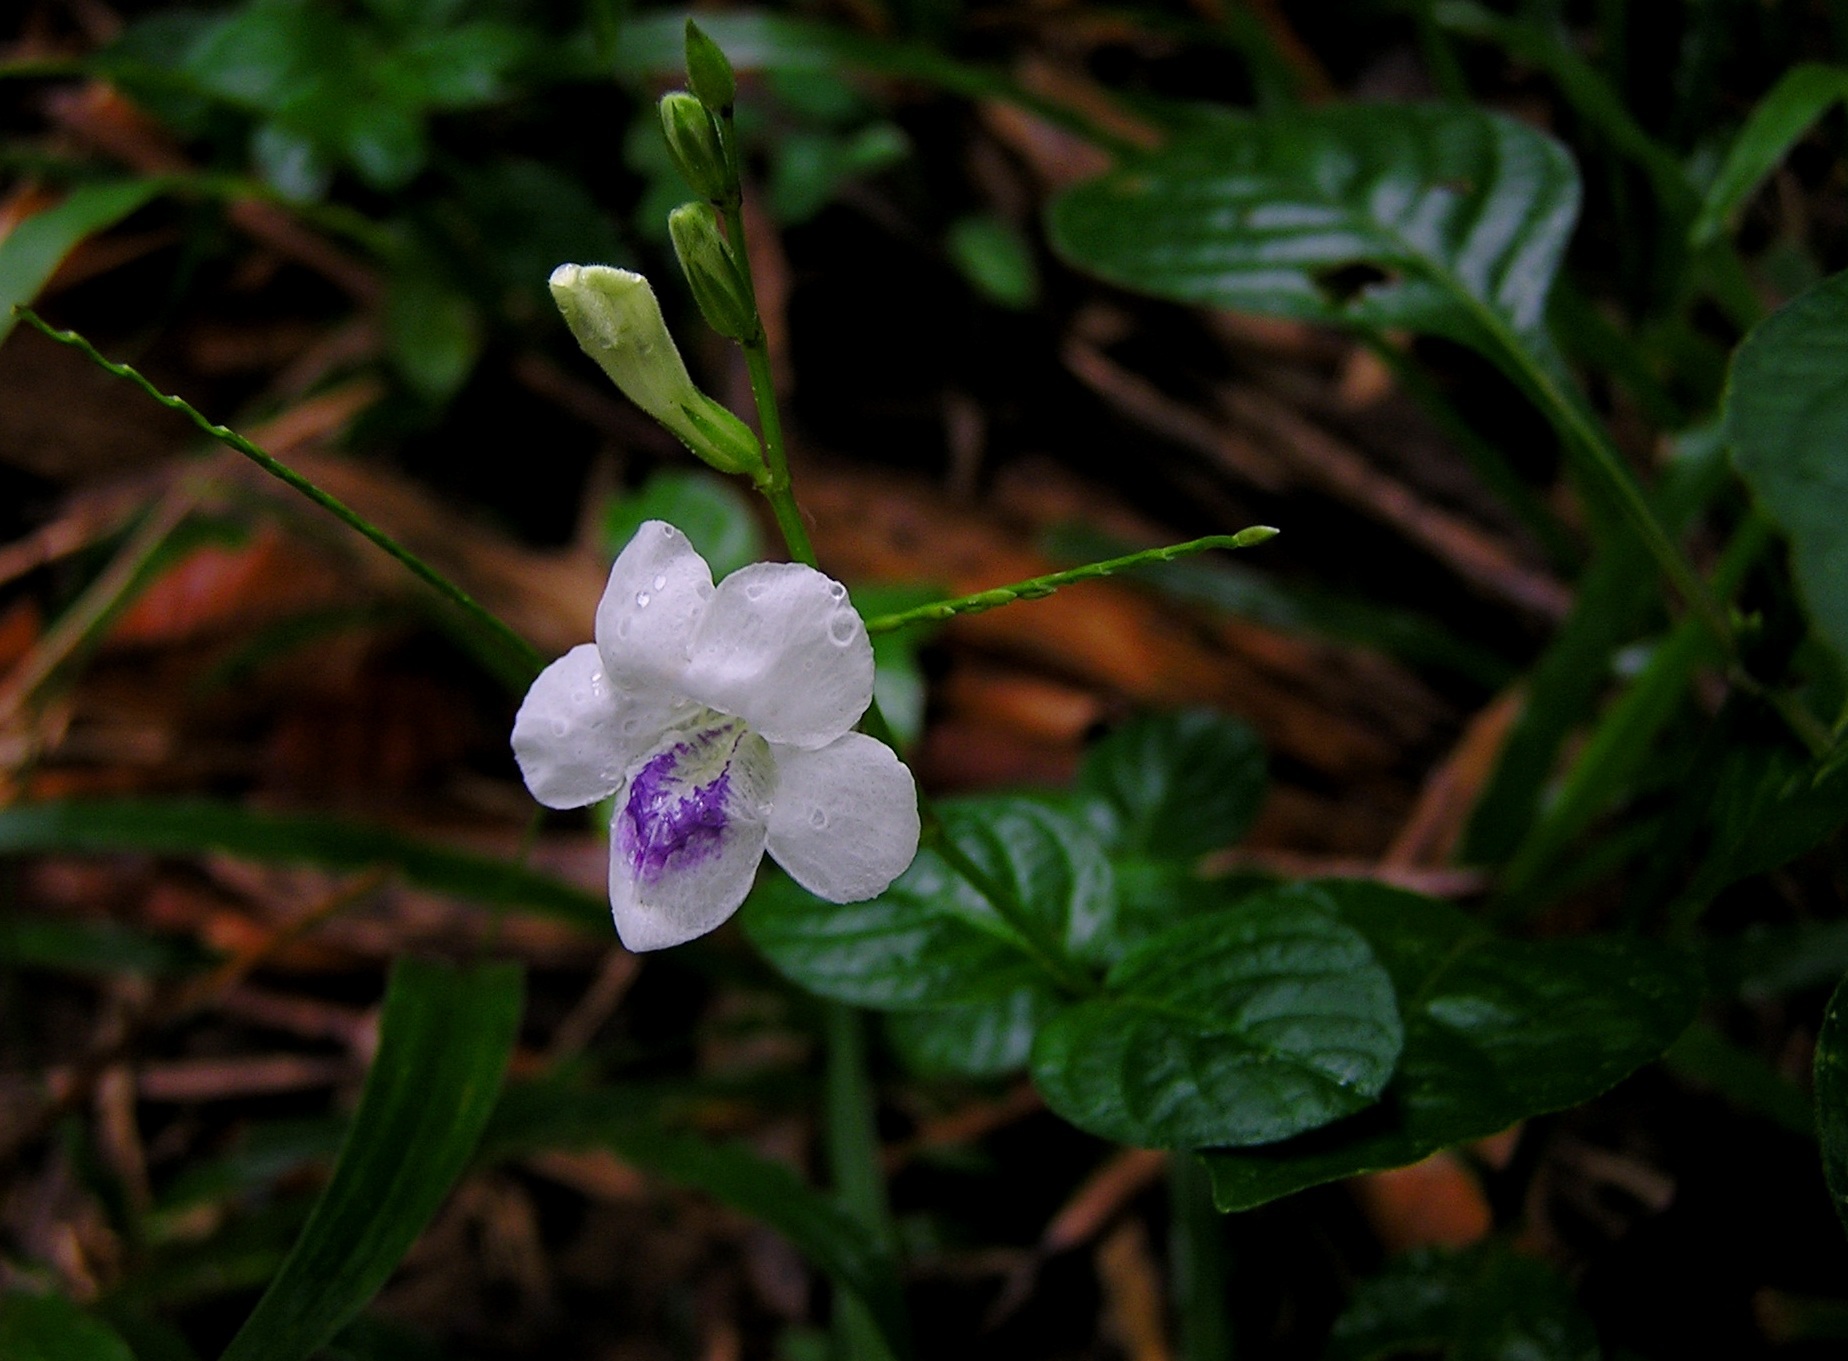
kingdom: Plantae
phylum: Tracheophyta
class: Magnoliopsida
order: Lamiales
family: Acanthaceae
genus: Asystasia
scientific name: Asystasia intrusa
